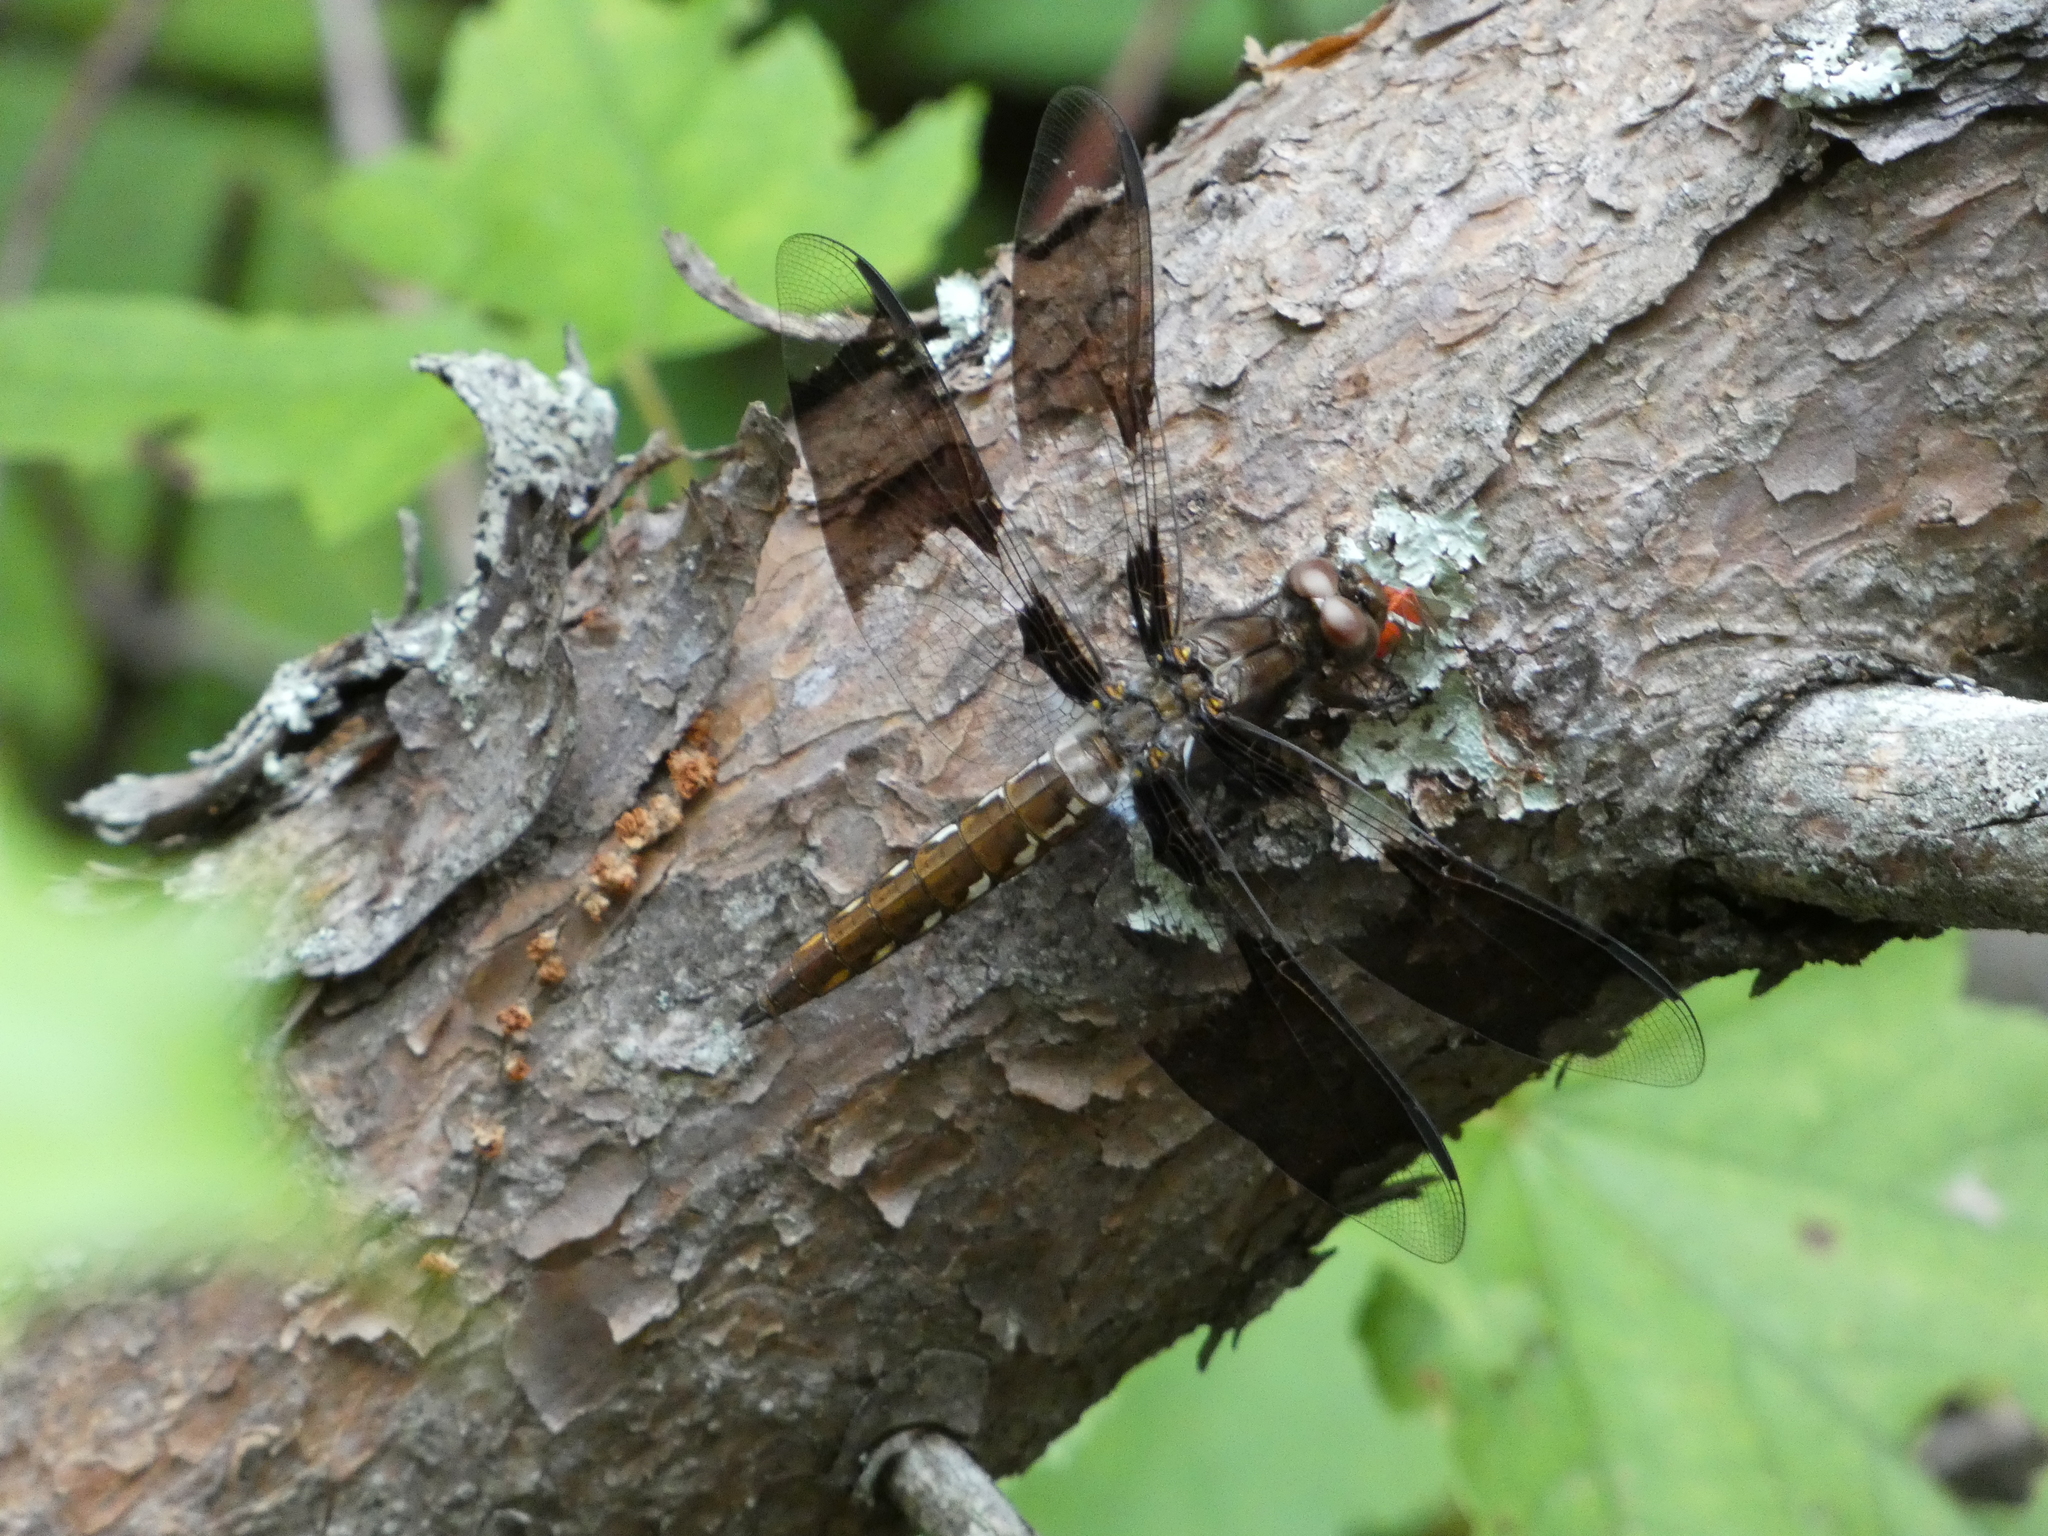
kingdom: Animalia
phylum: Arthropoda
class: Insecta
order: Odonata
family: Libellulidae
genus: Plathemis
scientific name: Plathemis lydia
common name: Common whitetail
